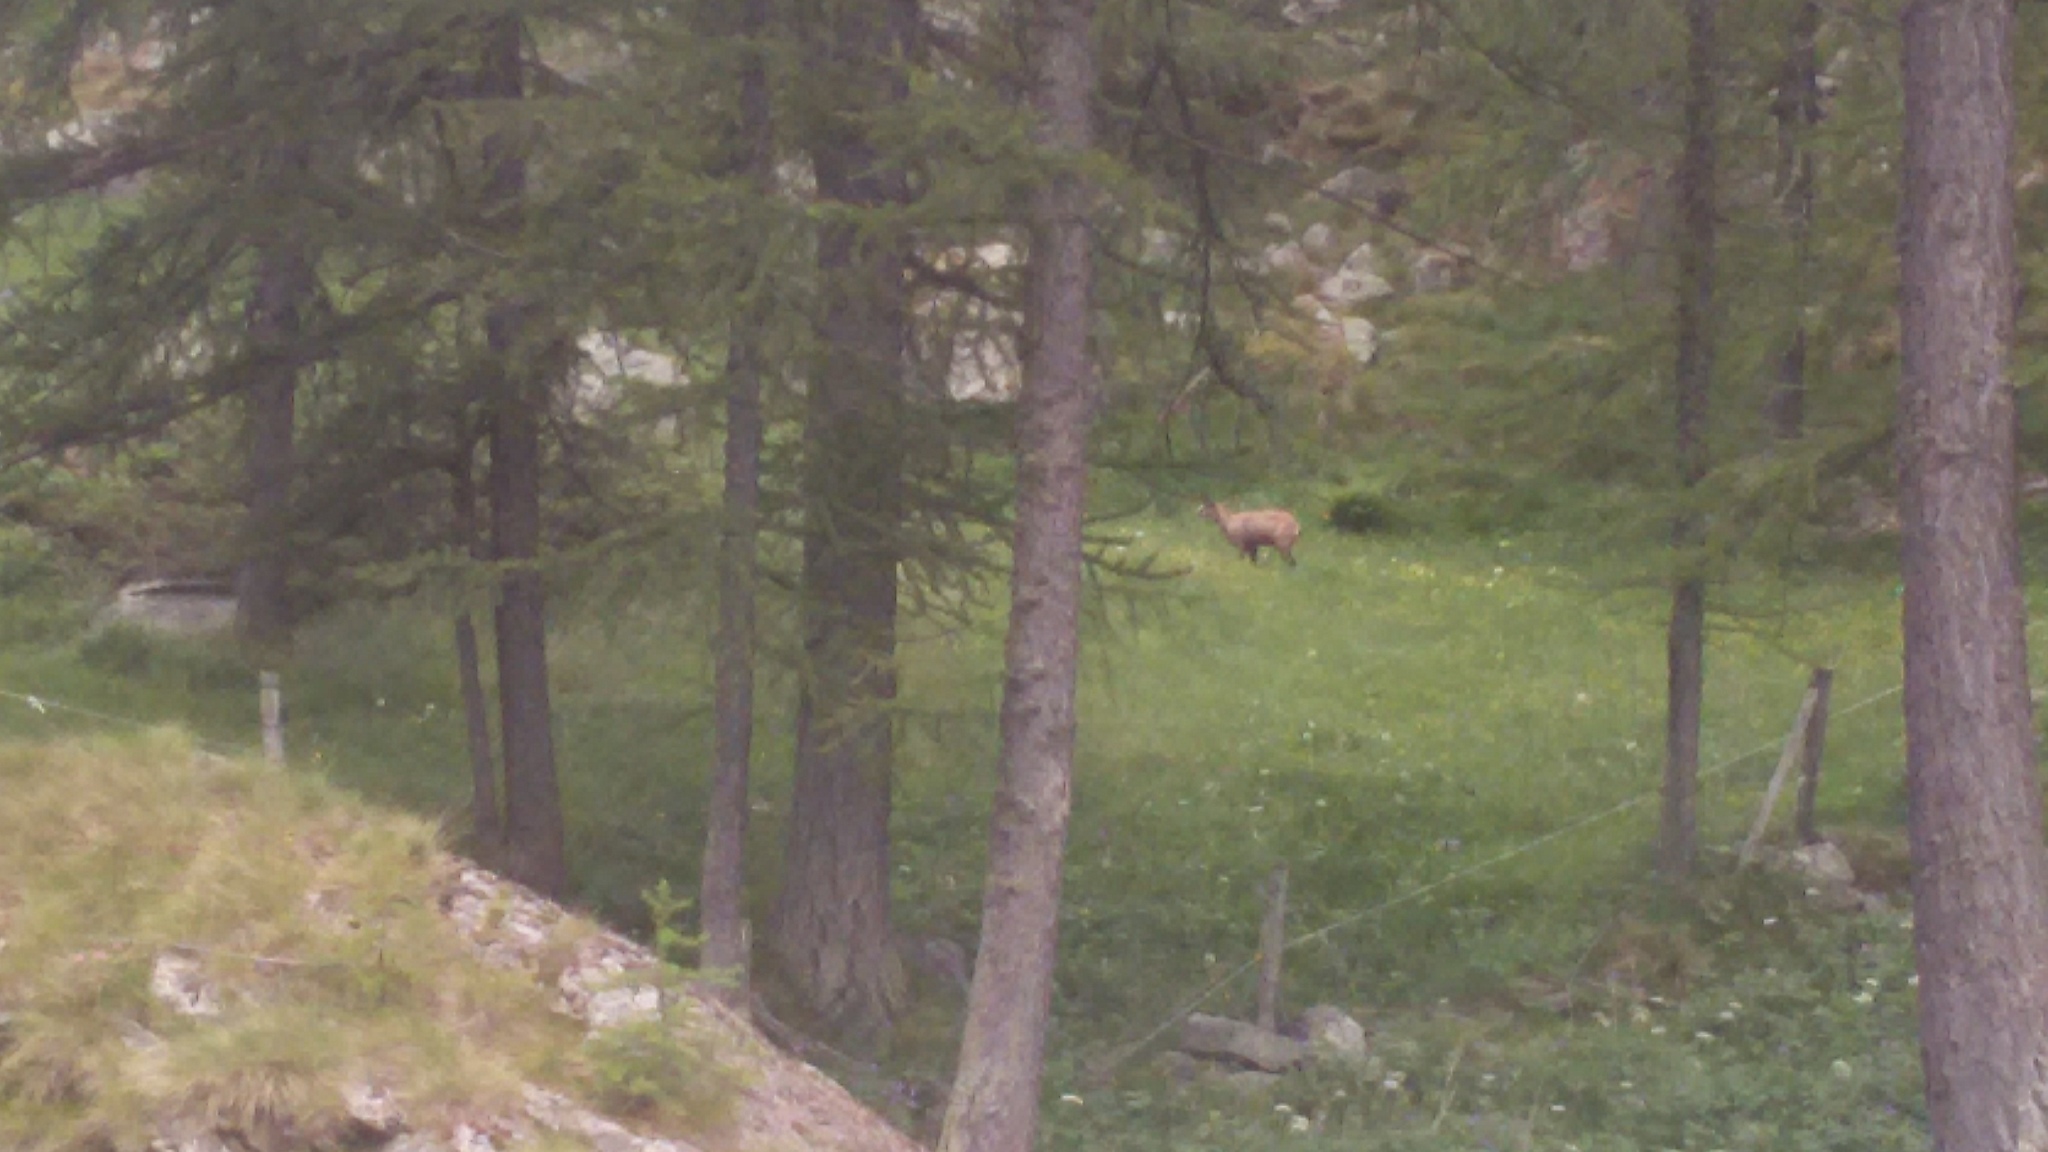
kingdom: Animalia
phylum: Chordata
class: Mammalia
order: Artiodactyla
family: Bovidae
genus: Rupicapra
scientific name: Rupicapra rupicapra
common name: Chamois
